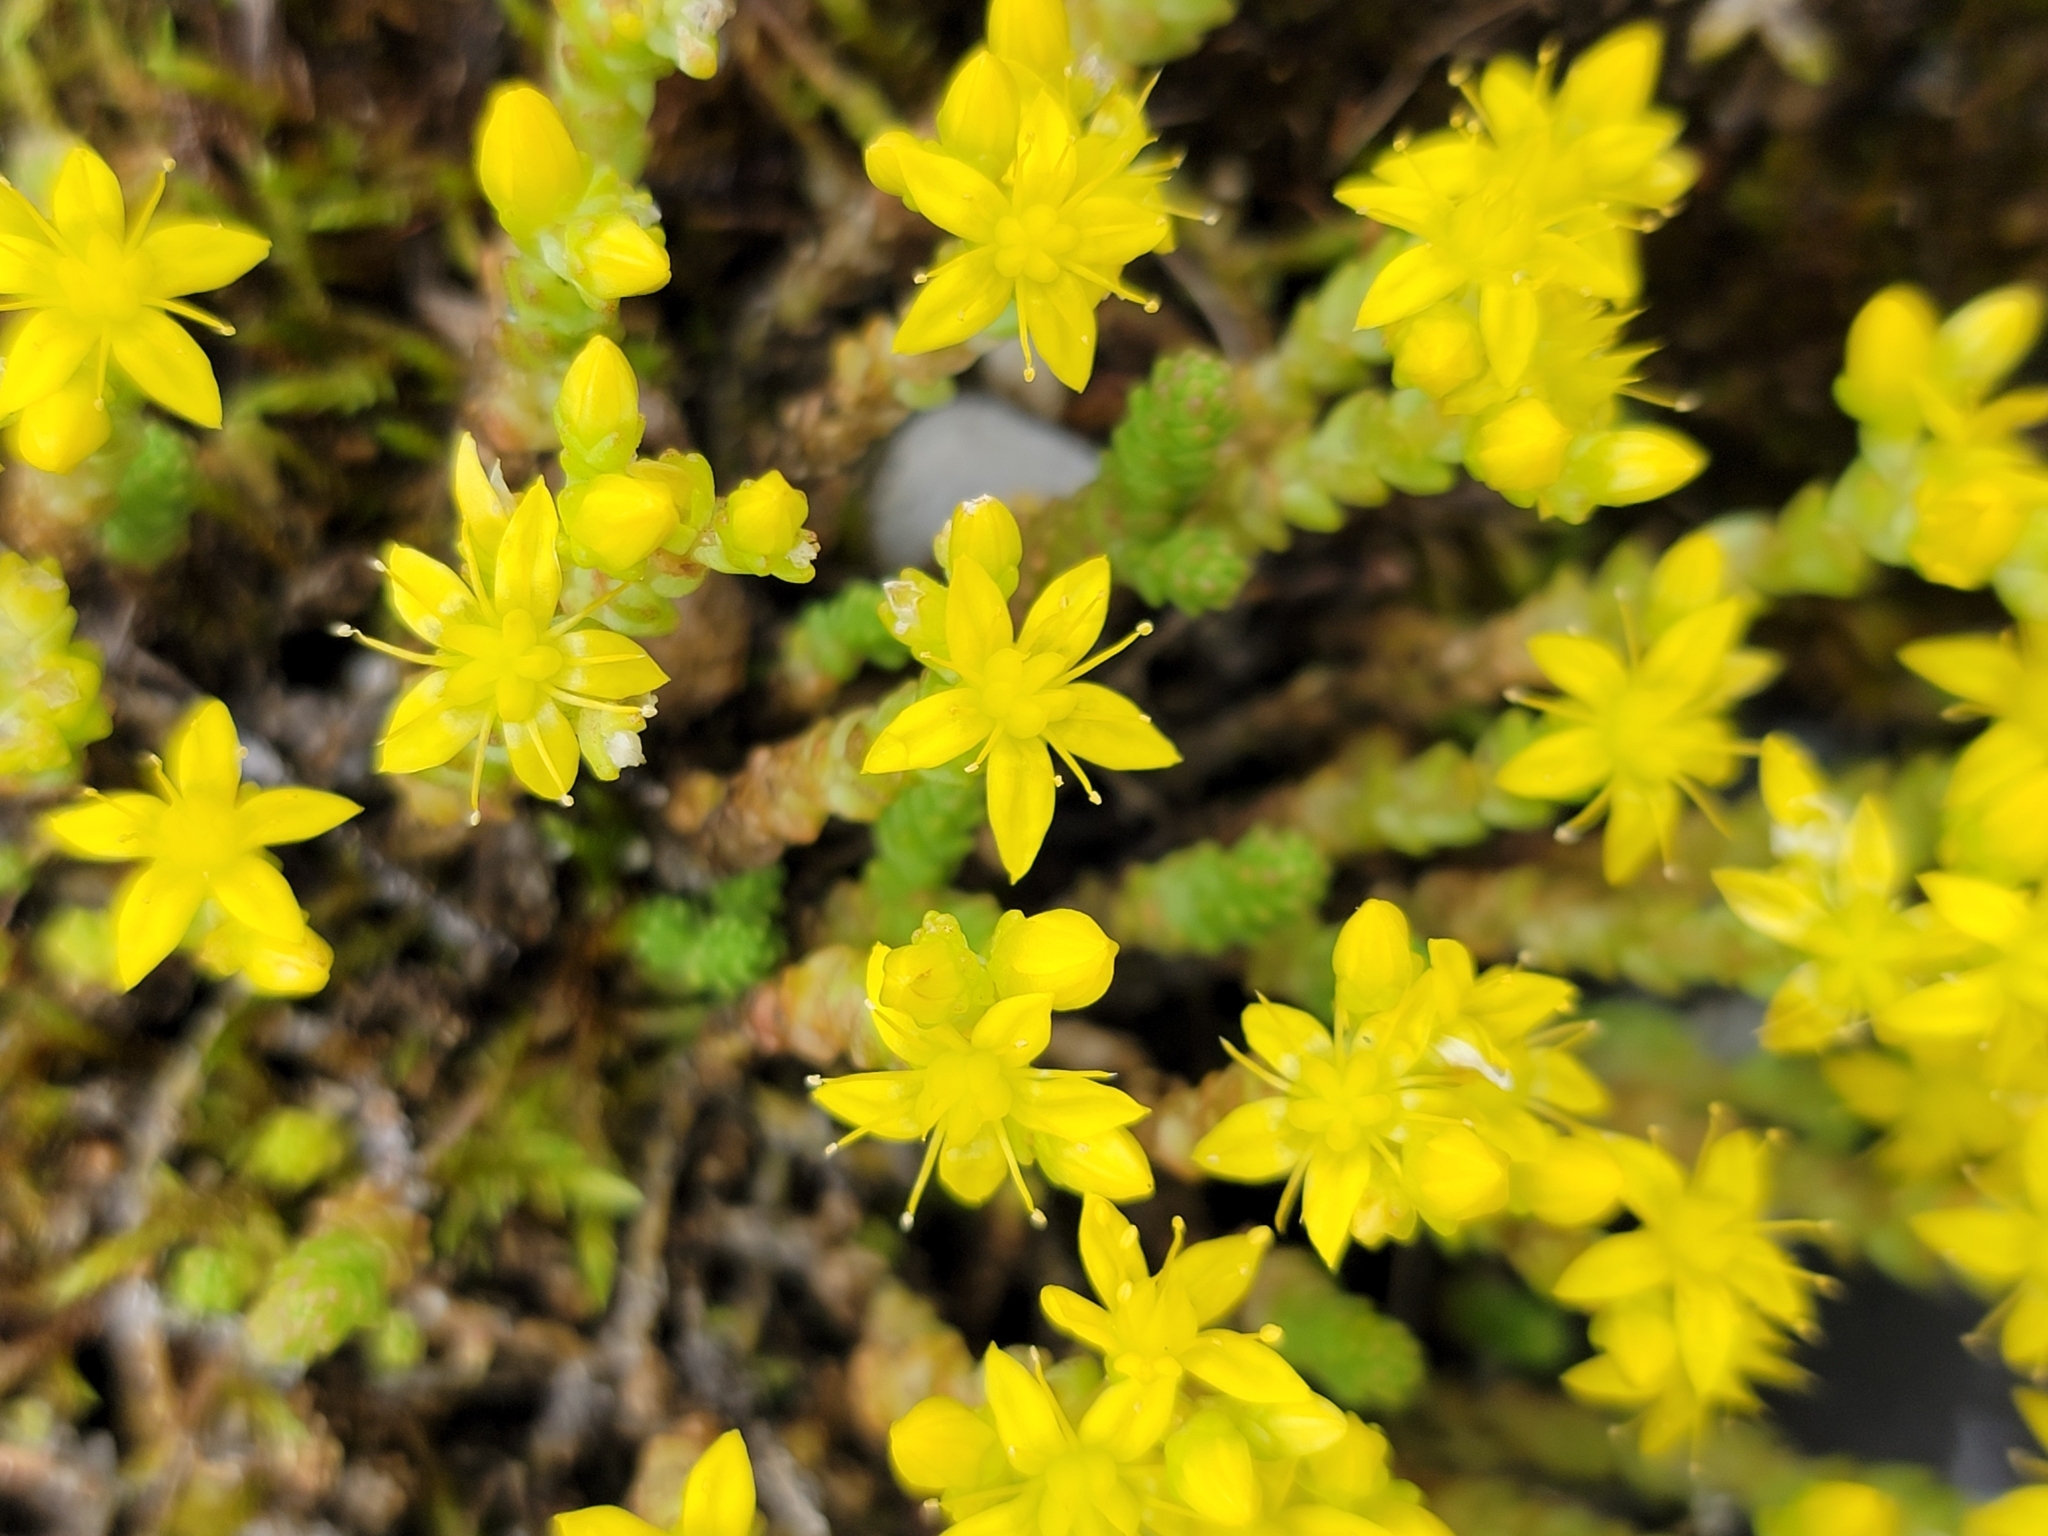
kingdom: Plantae
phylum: Tracheophyta
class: Magnoliopsida
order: Saxifragales
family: Crassulaceae
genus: Sedum
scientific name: Sedum acre
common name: Biting stonecrop
